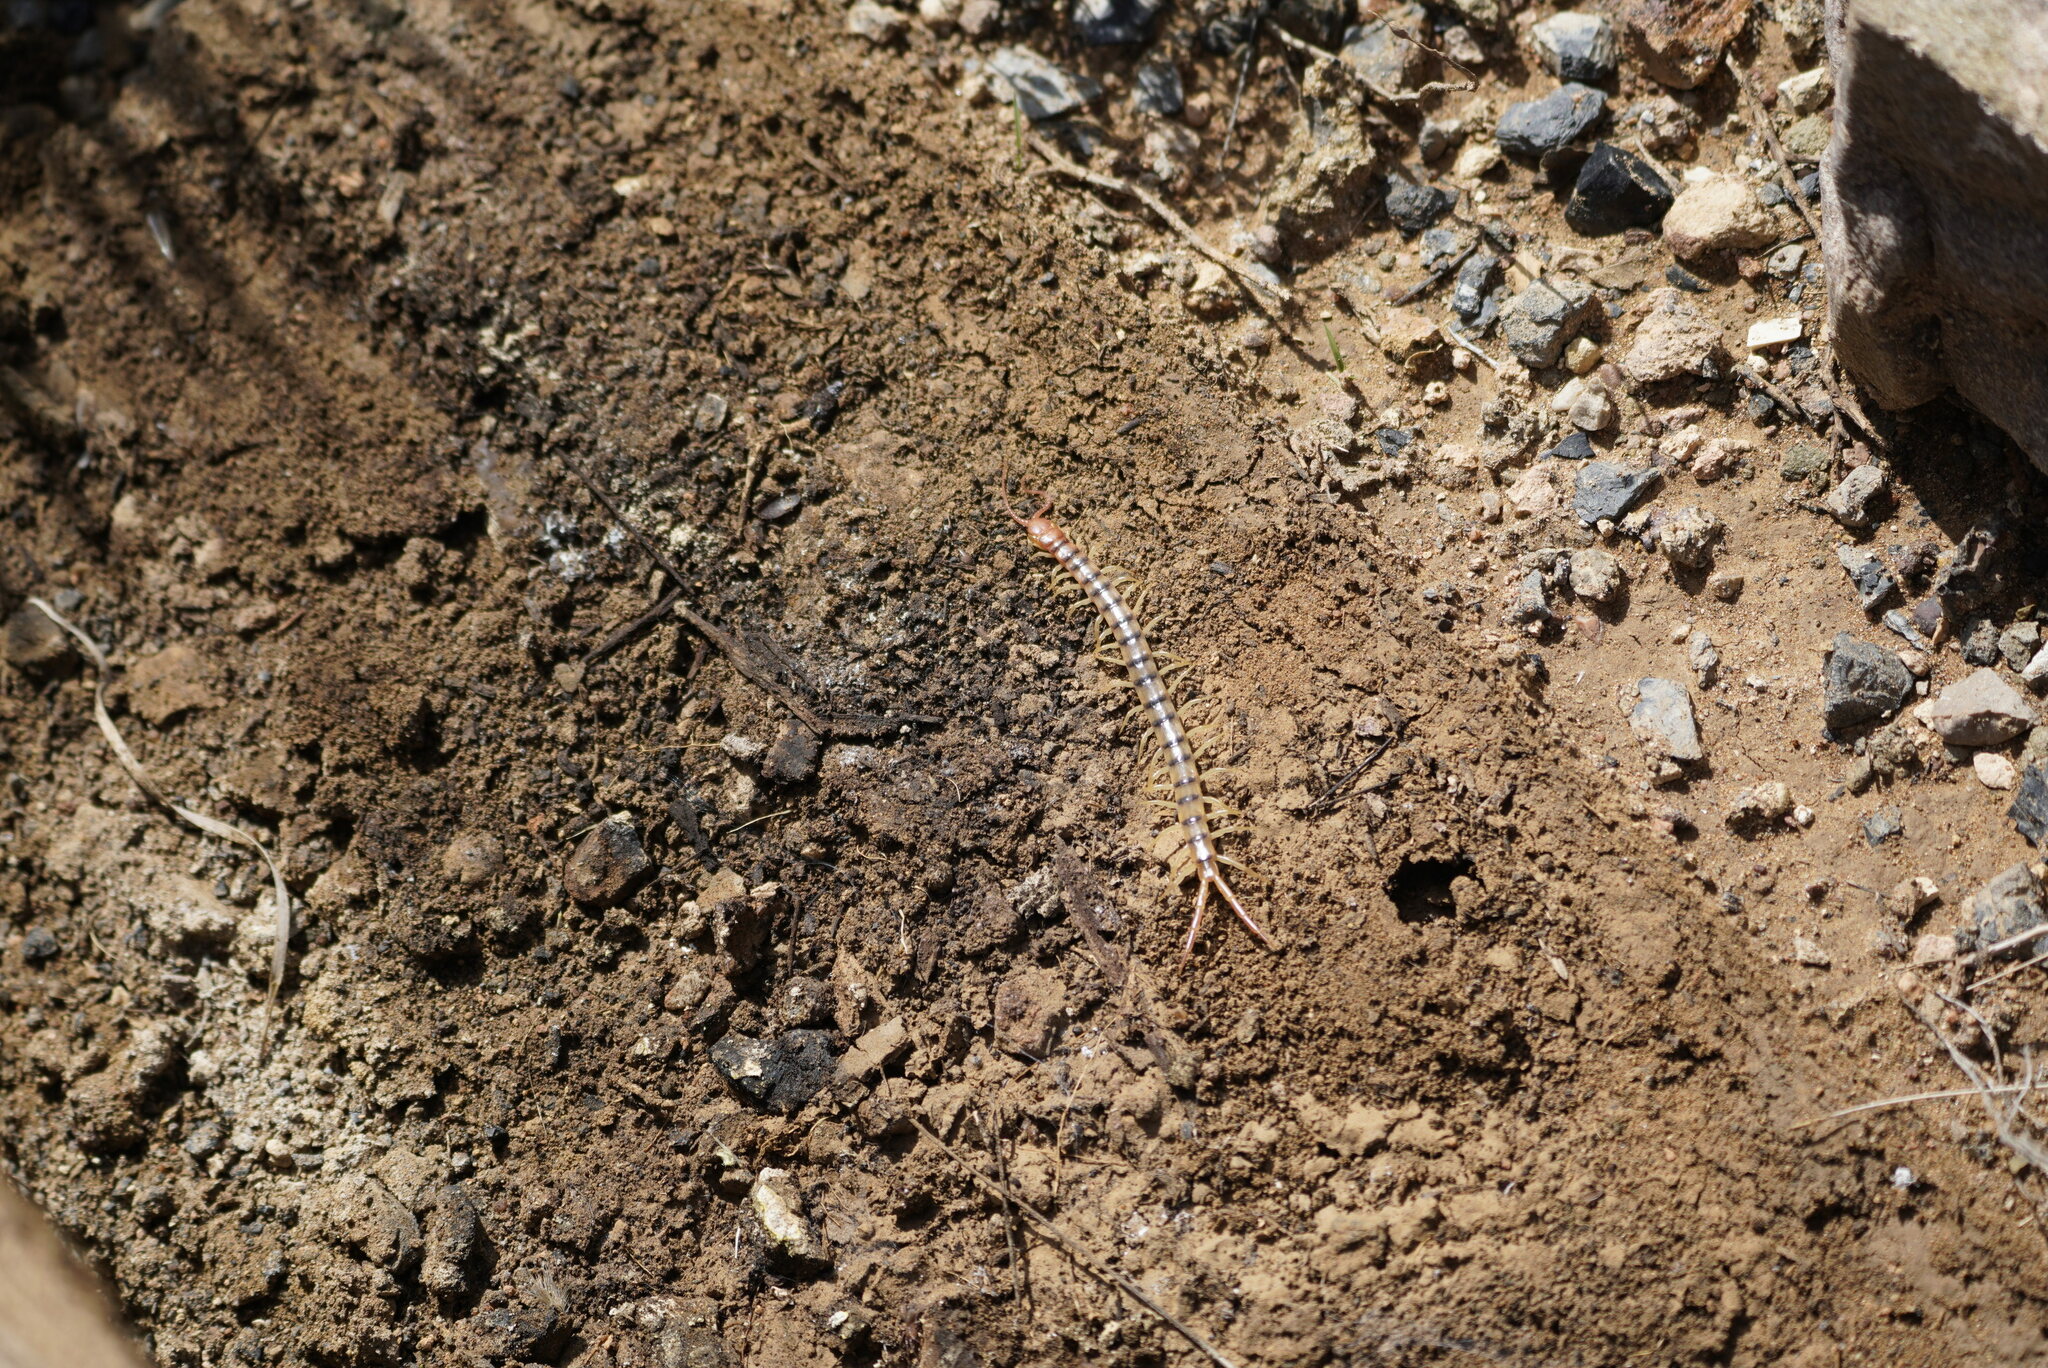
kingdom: Animalia
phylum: Arthropoda
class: Chilopoda
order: Scolopendromorpha
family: Scolopendridae
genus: Scolopendra
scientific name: Scolopendra polymorpha
